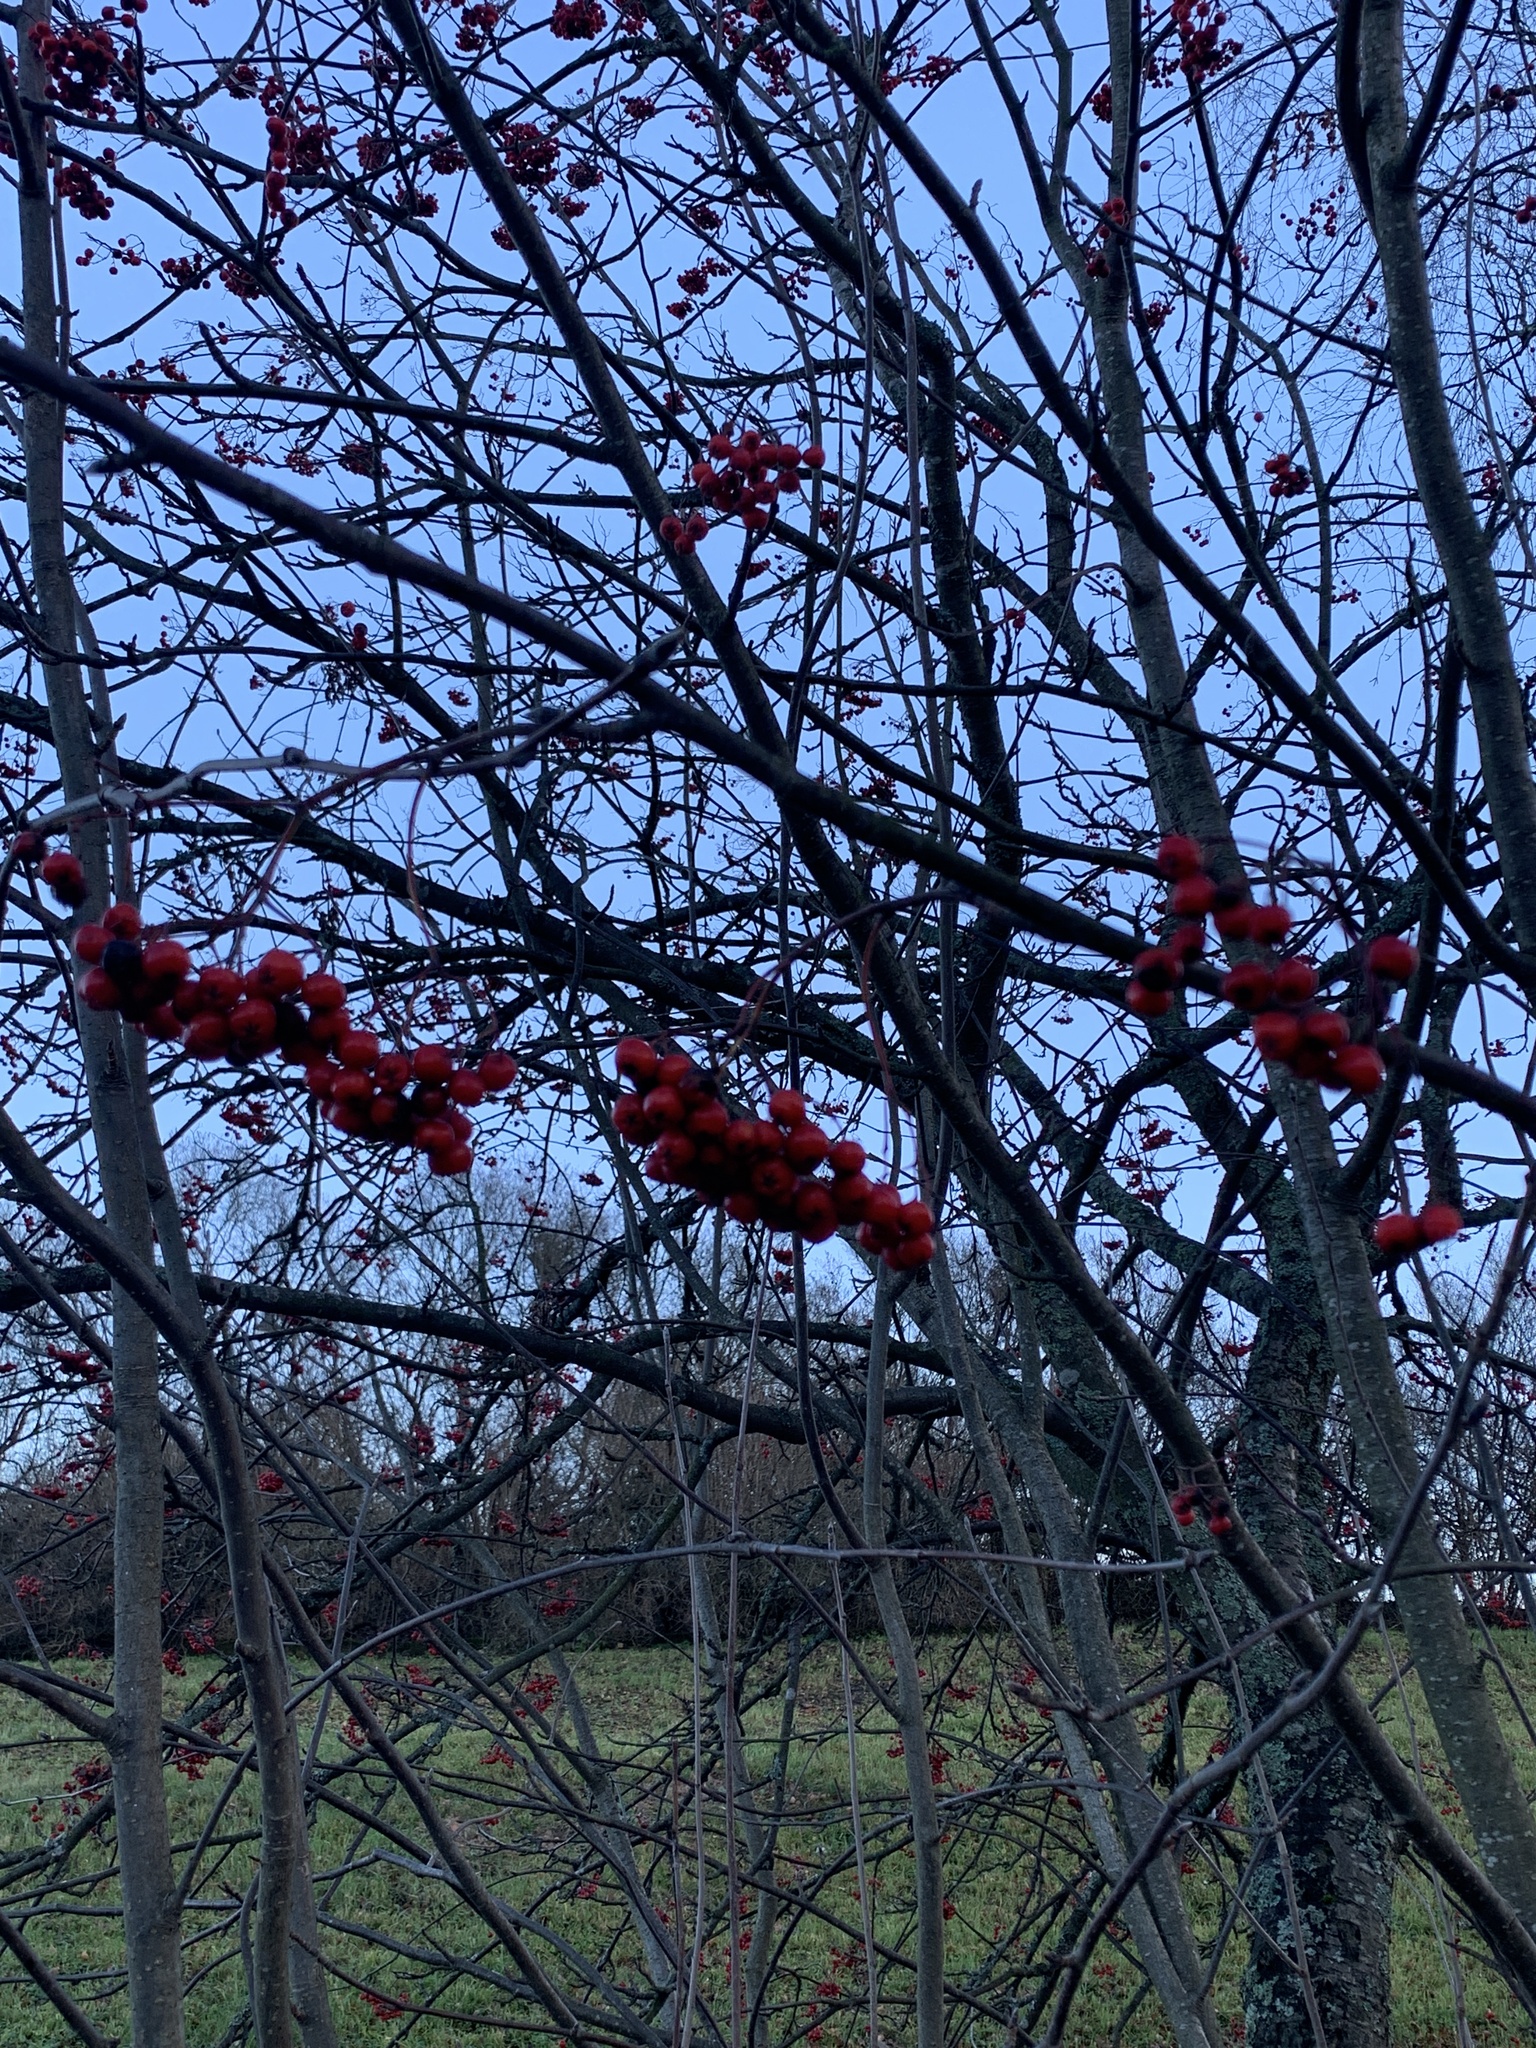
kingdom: Plantae
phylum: Tracheophyta
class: Magnoliopsida
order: Rosales
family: Rosaceae
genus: Sorbus
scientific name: Sorbus aucuparia
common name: Rowan
